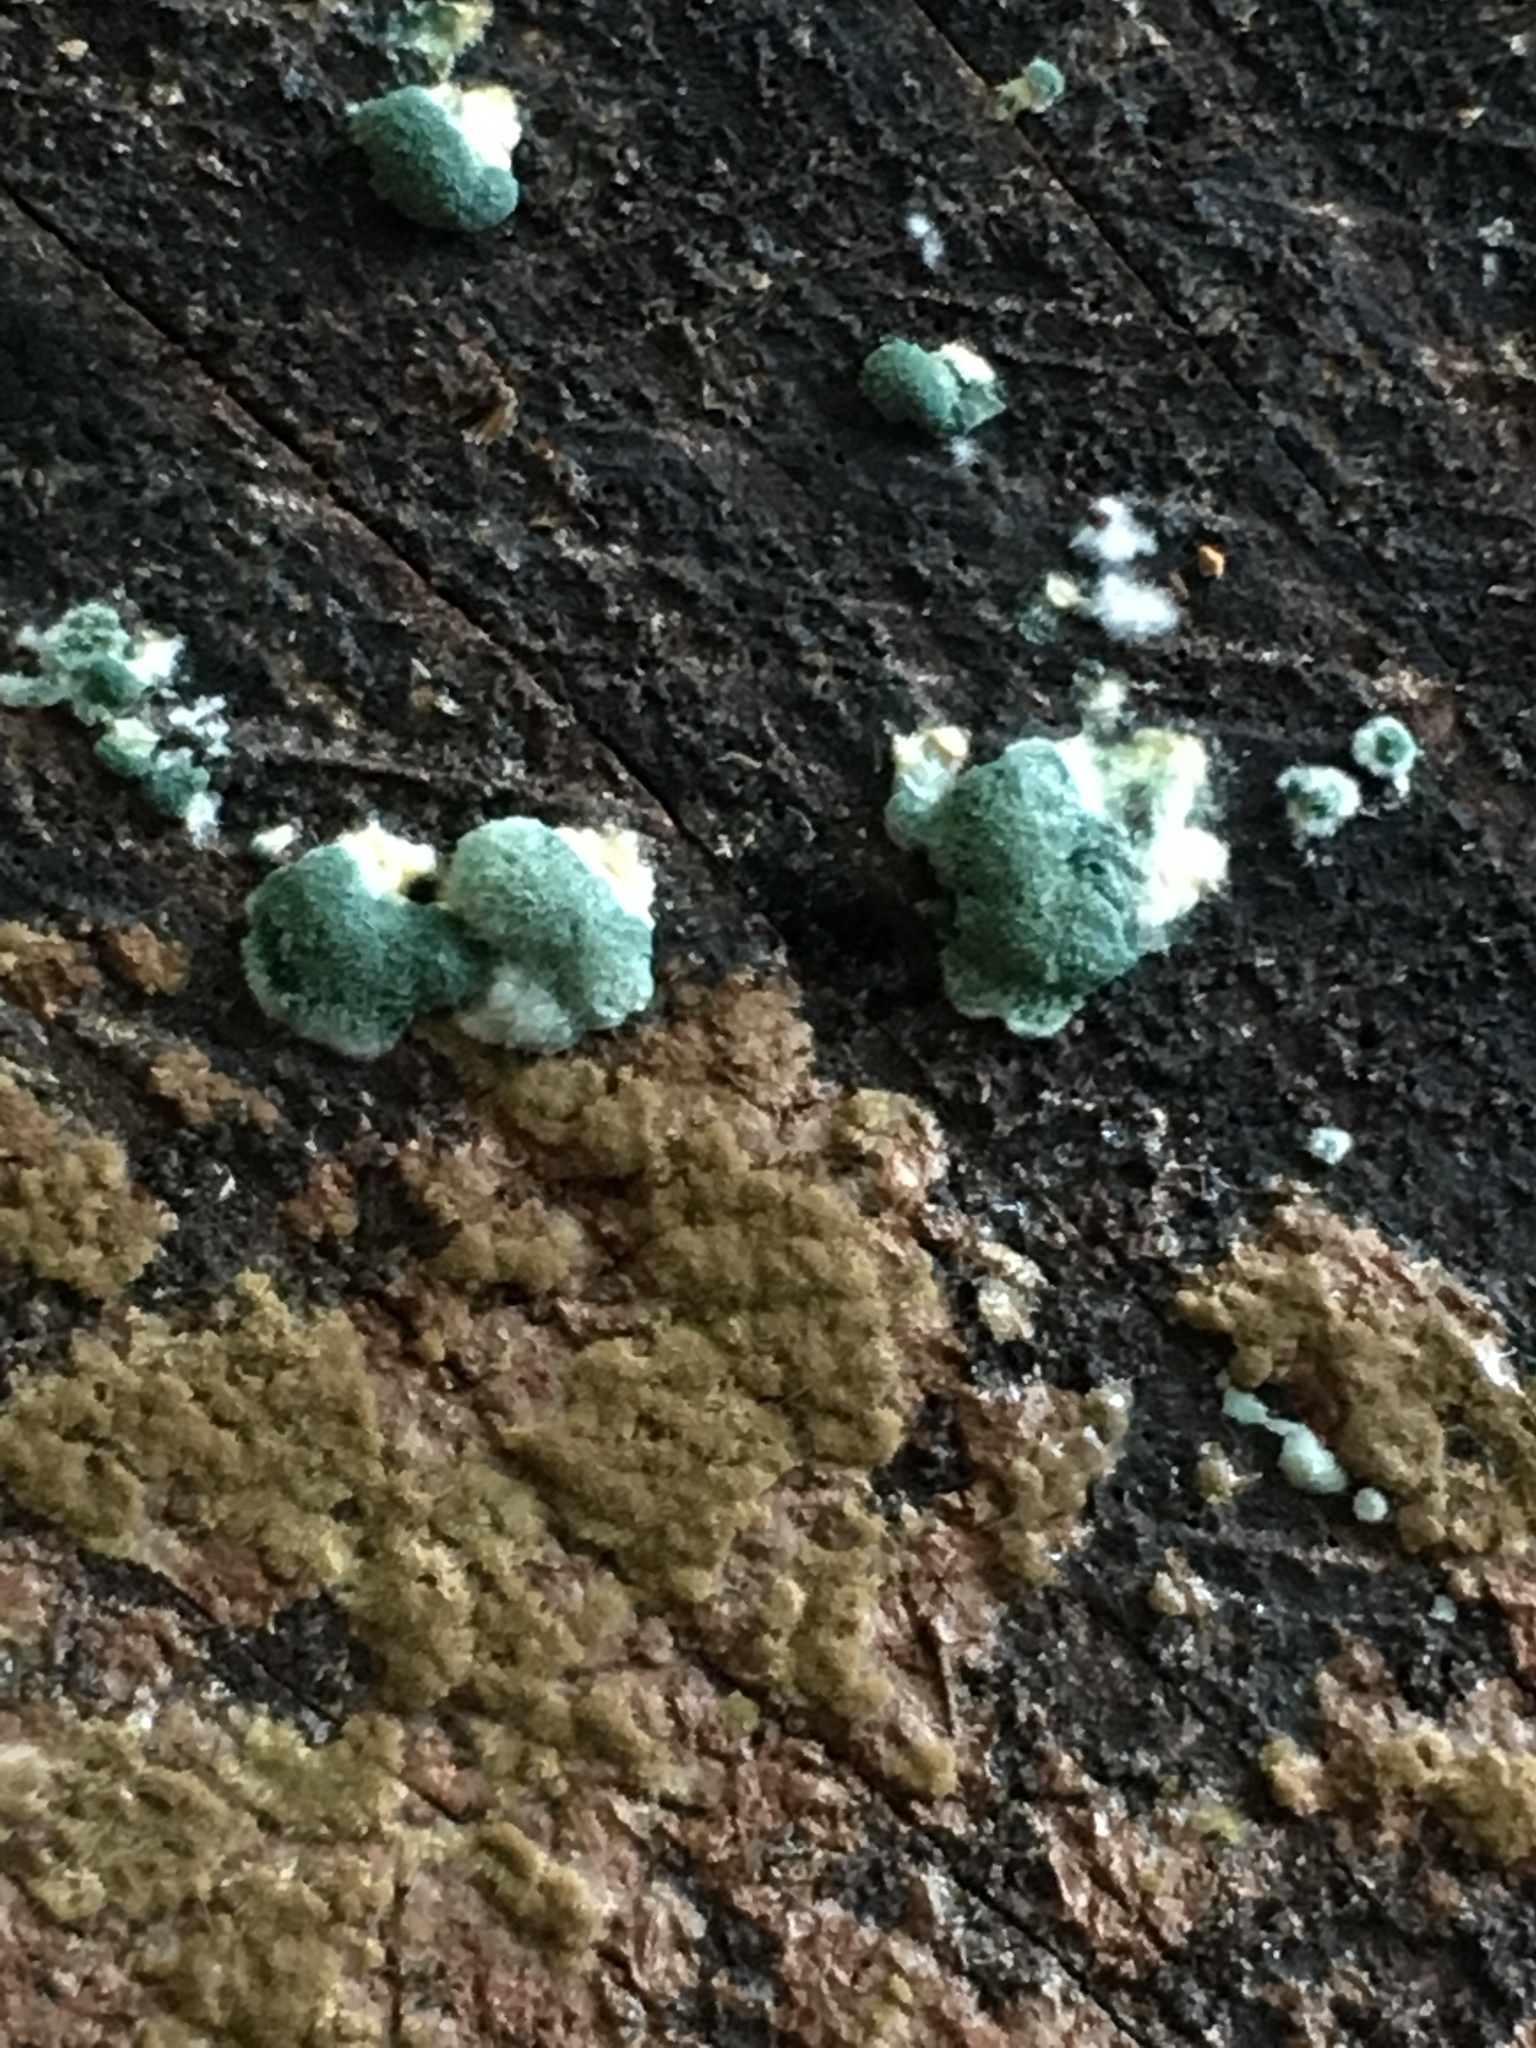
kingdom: Fungi
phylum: Ascomycota
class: Sordariomycetes
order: Hypocreales
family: Hypocreaceae
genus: Trichoderma
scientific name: Trichoderma viride
